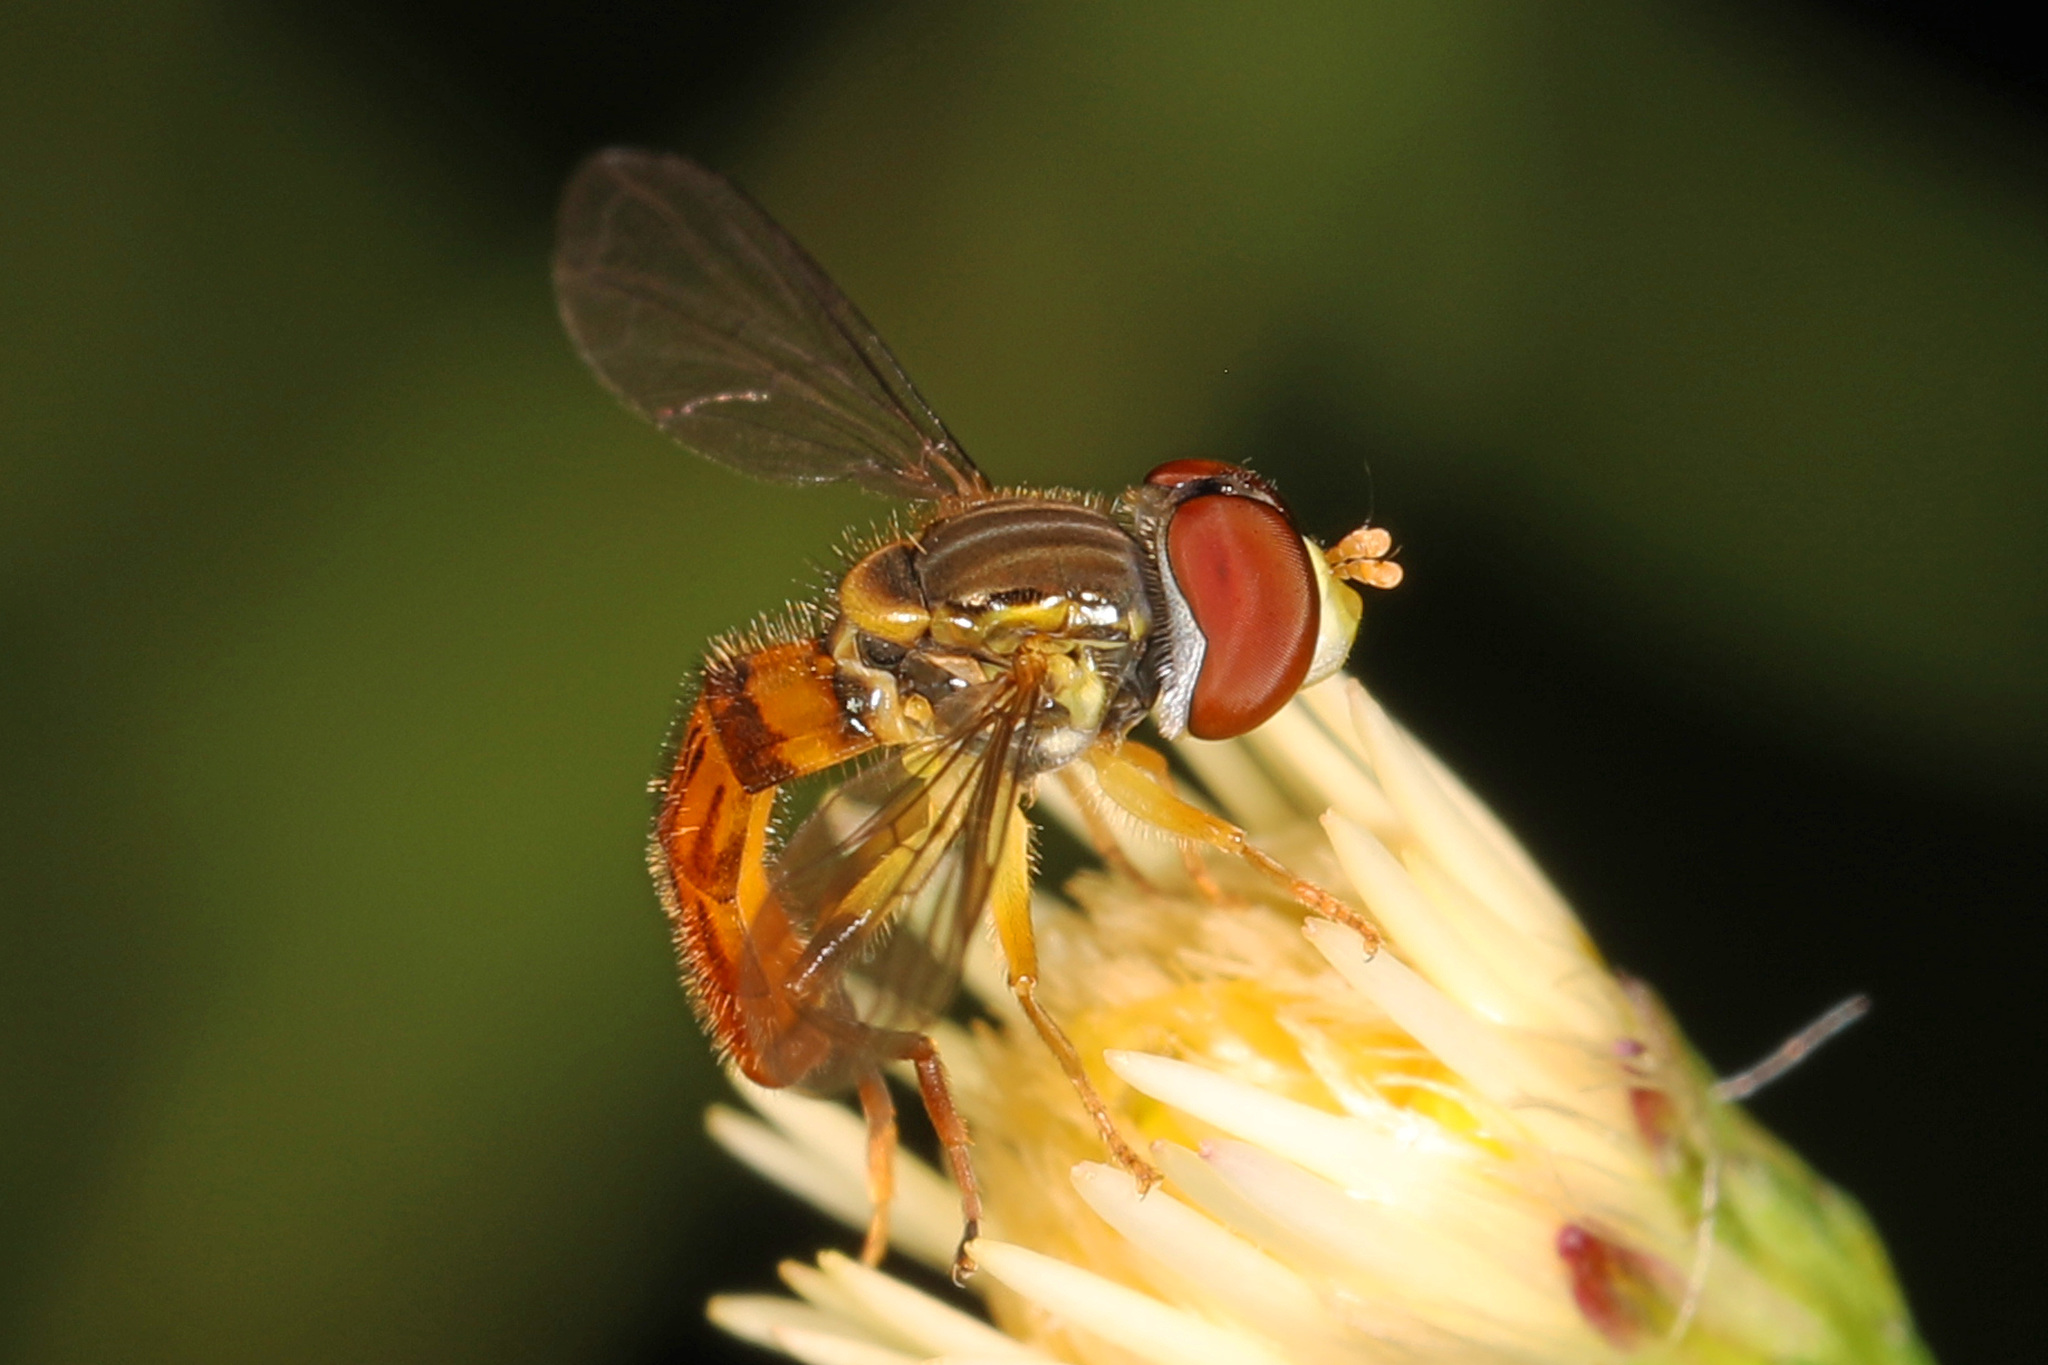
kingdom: Animalia
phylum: Arthropoda
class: Insecta
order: Diptera
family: Syrphidae
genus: Toxomerus
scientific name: Toxomerus boscii
